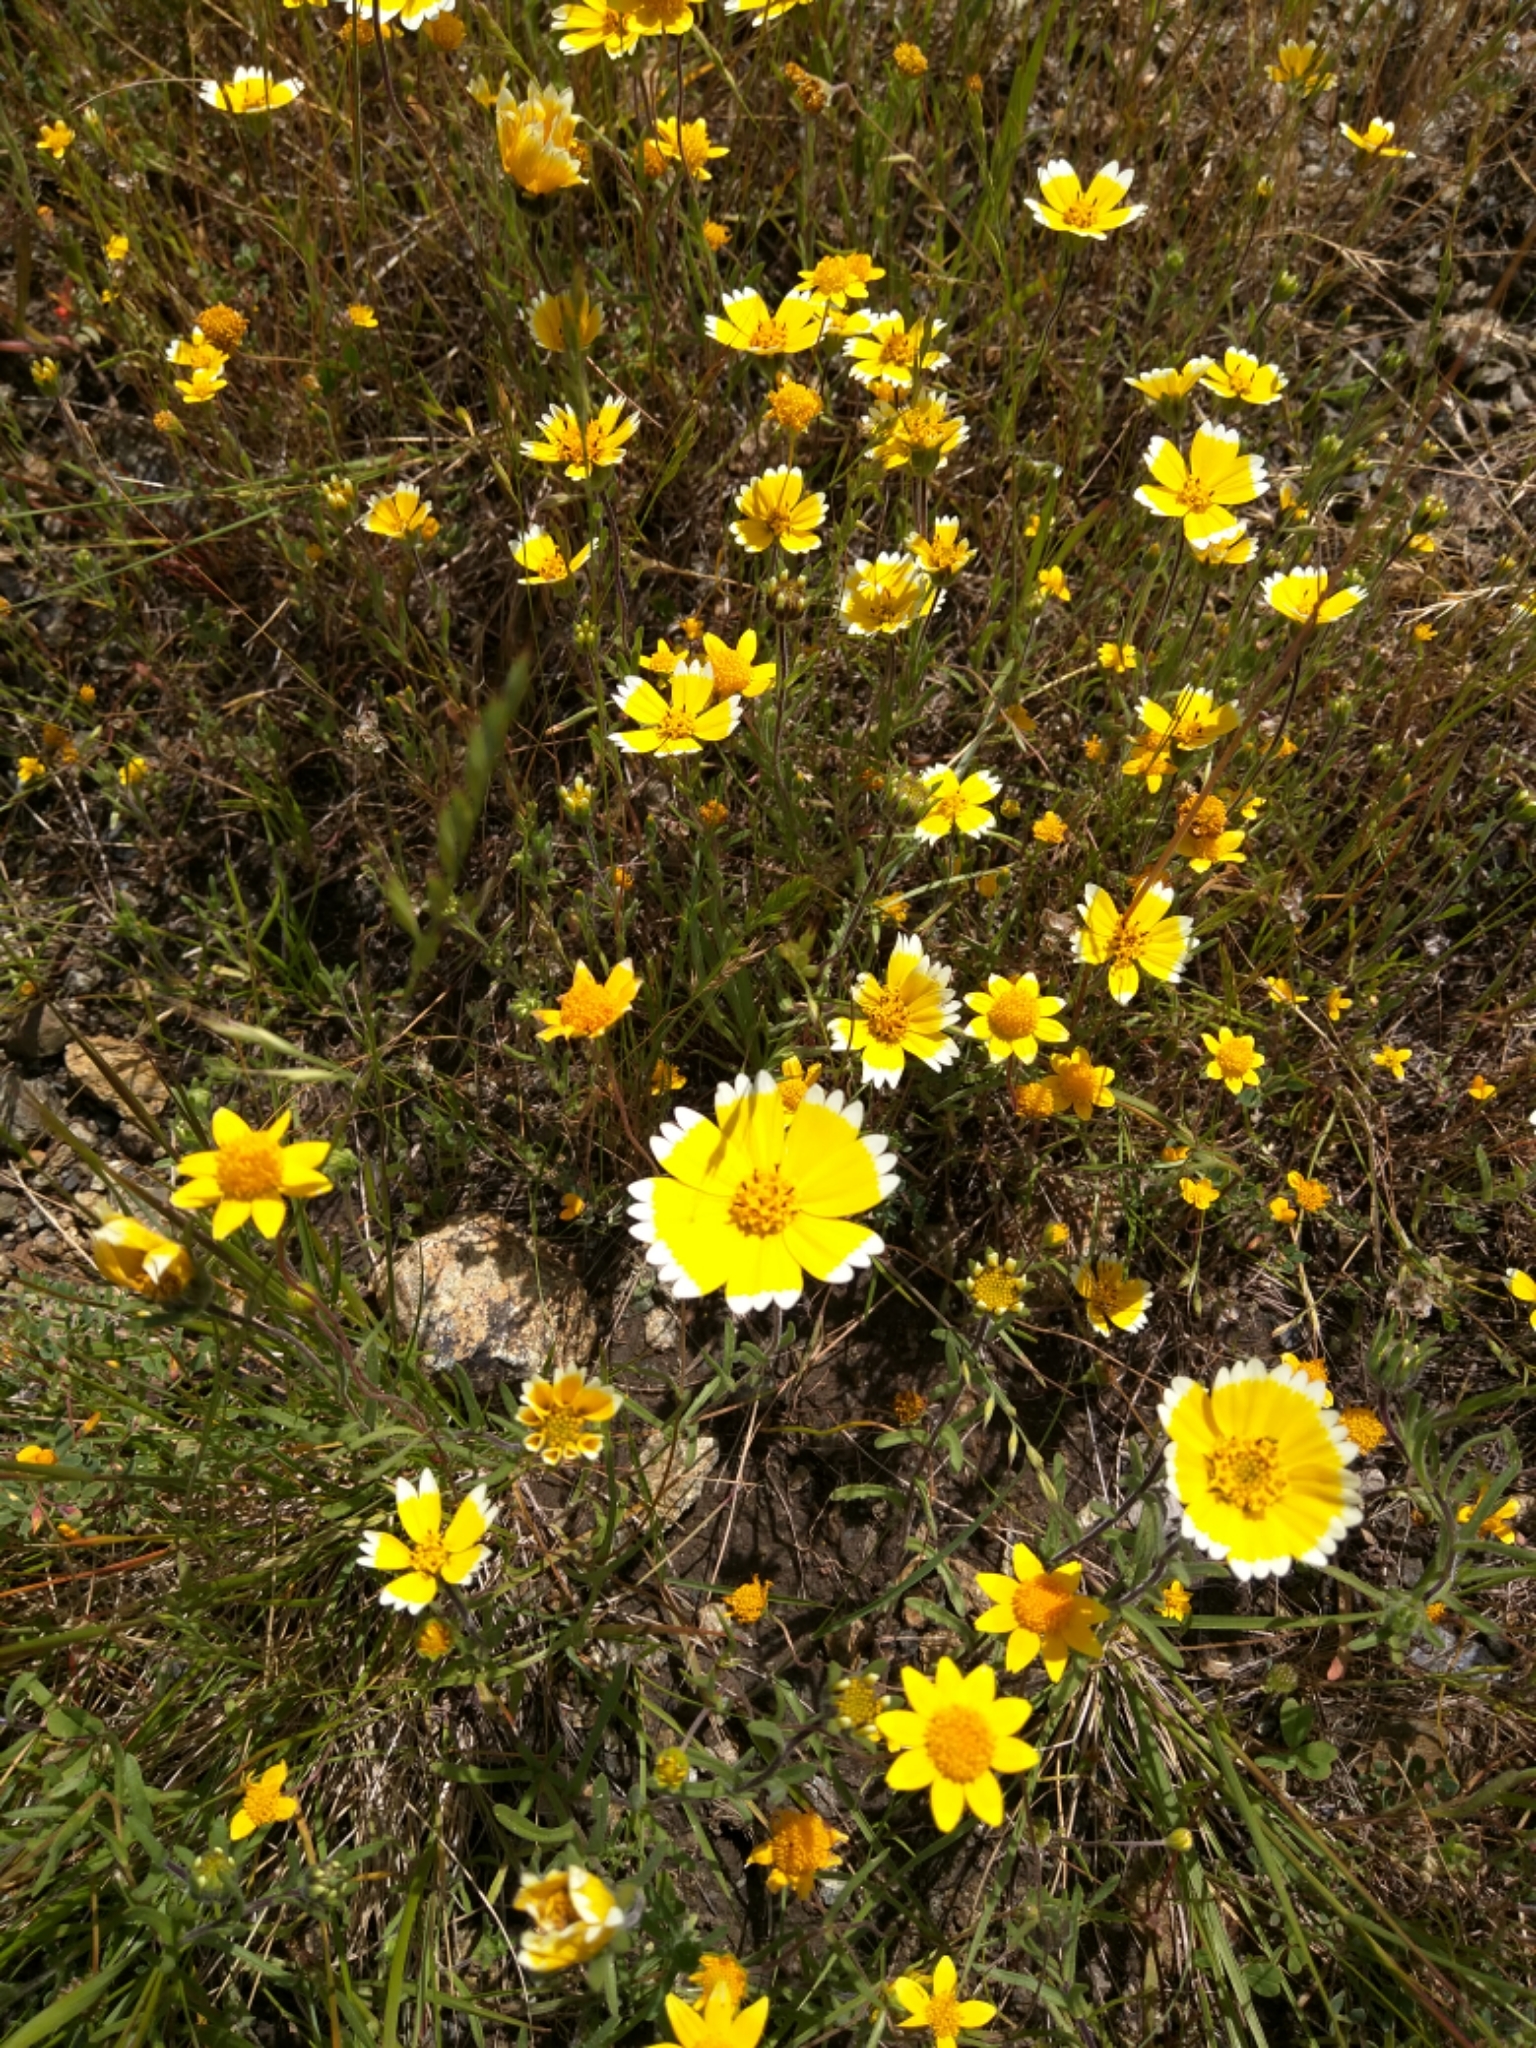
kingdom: Plantae
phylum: Tracheophyta
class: Magnoliopsida
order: Asterales
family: Asteraceae
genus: Layia
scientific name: Layia platyglossa
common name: Tidy-tips
